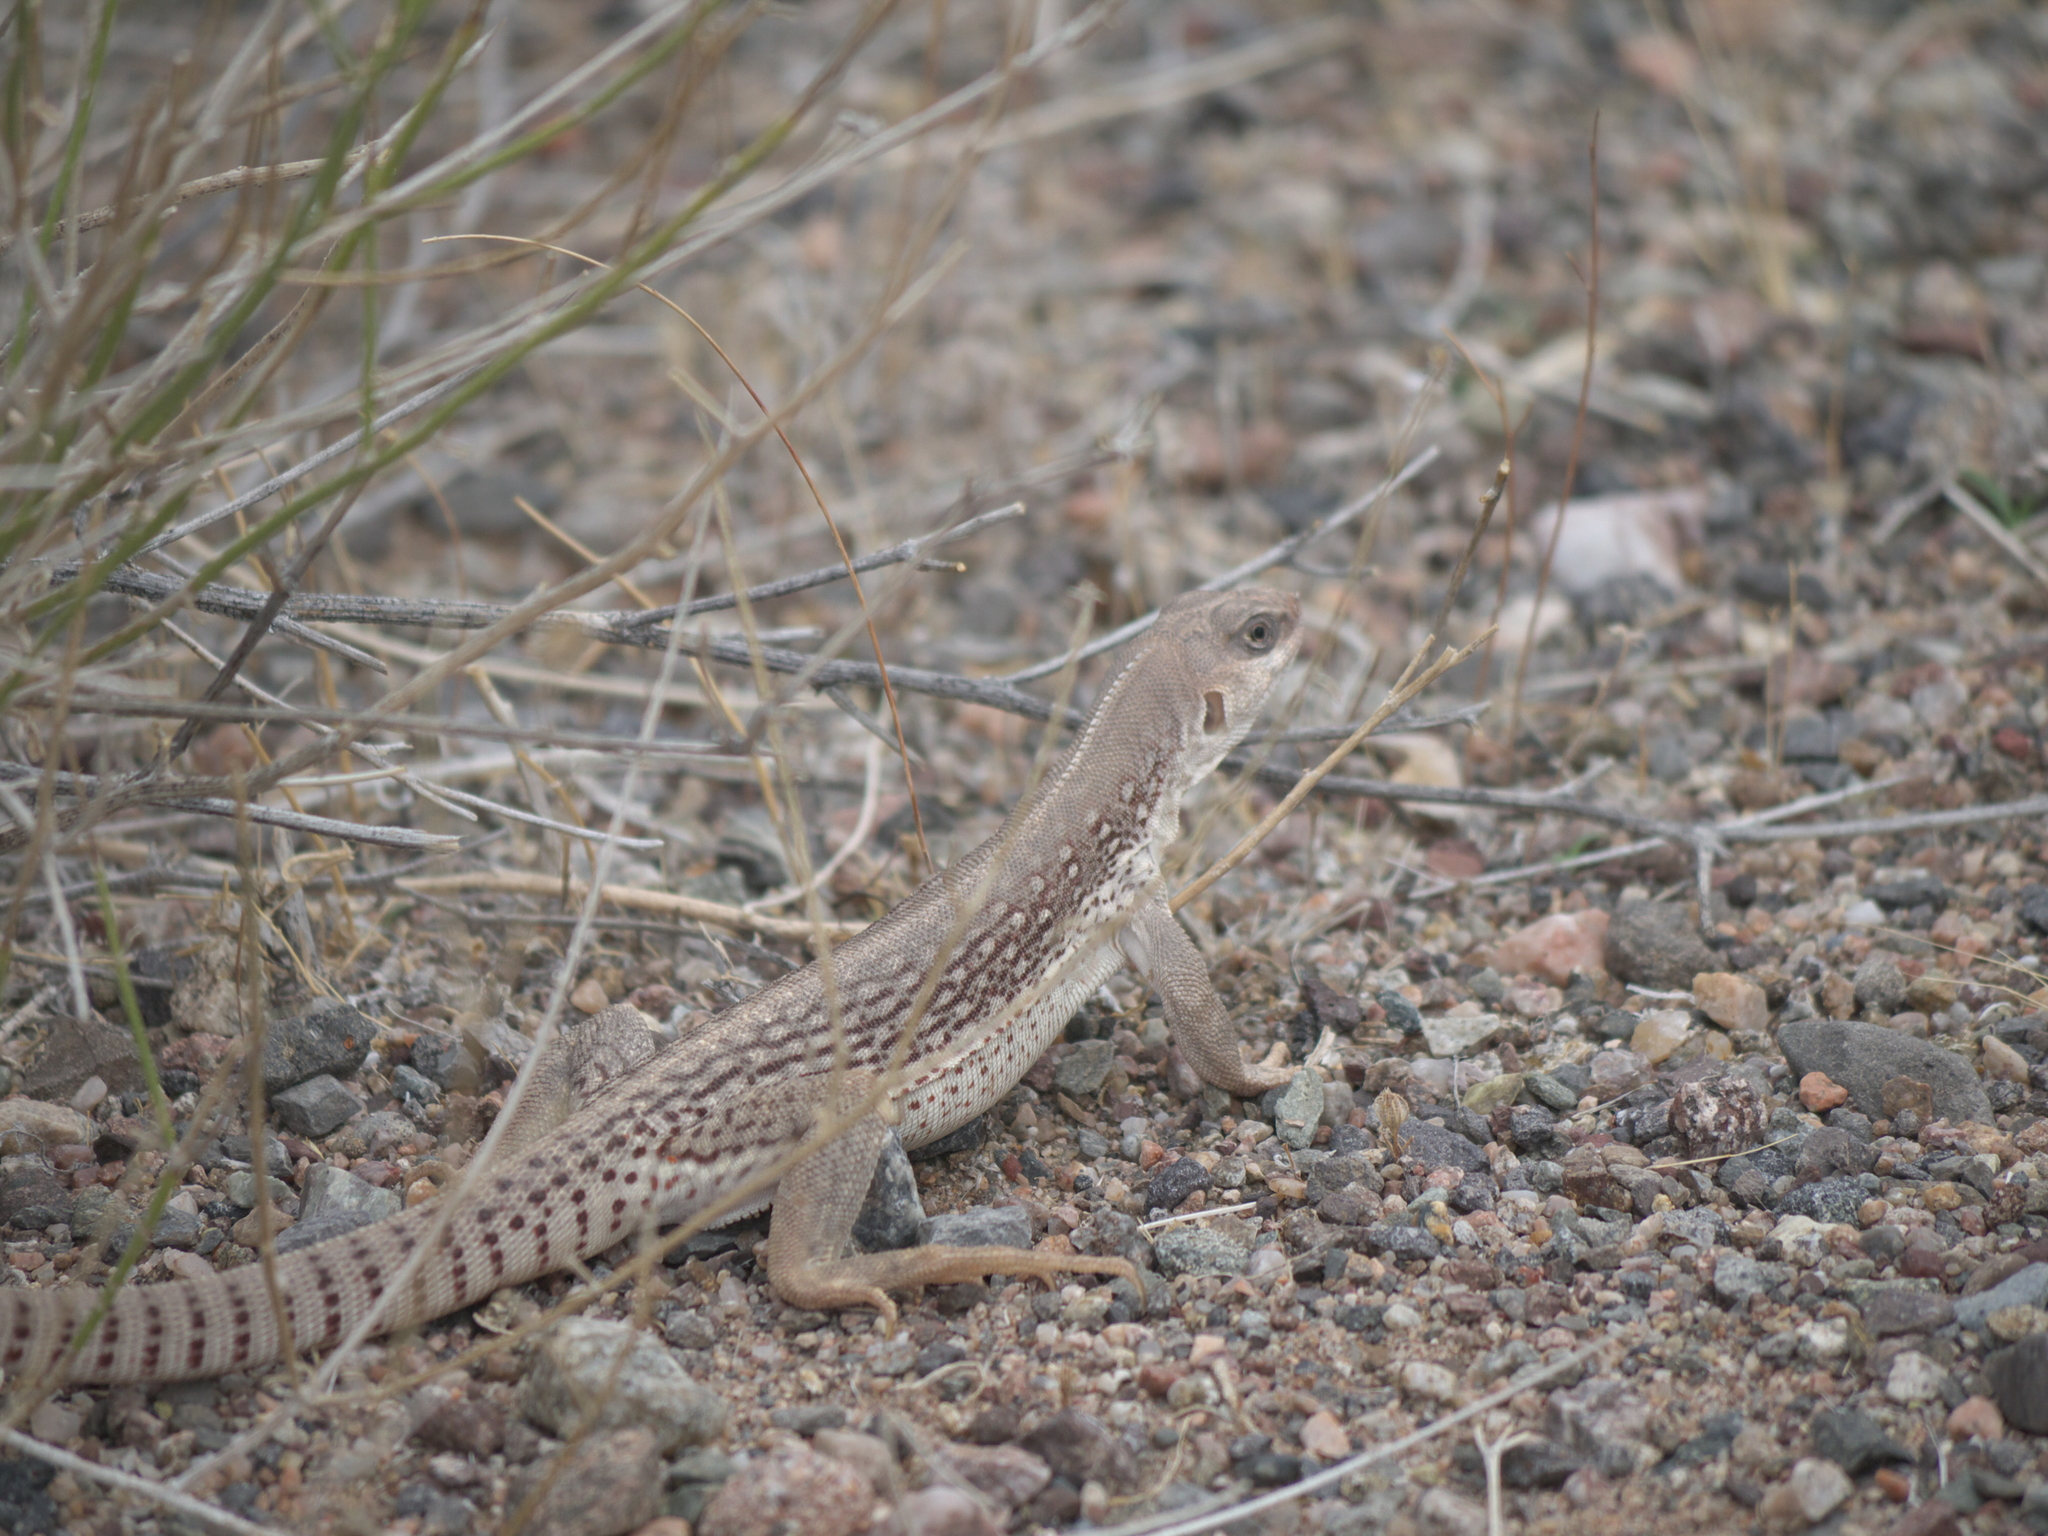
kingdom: Animalia
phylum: Chordata
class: Squamata
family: Iguanidae
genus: Dipsosaurus
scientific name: Dipsosaurus dorsalis
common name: Desert iguana
